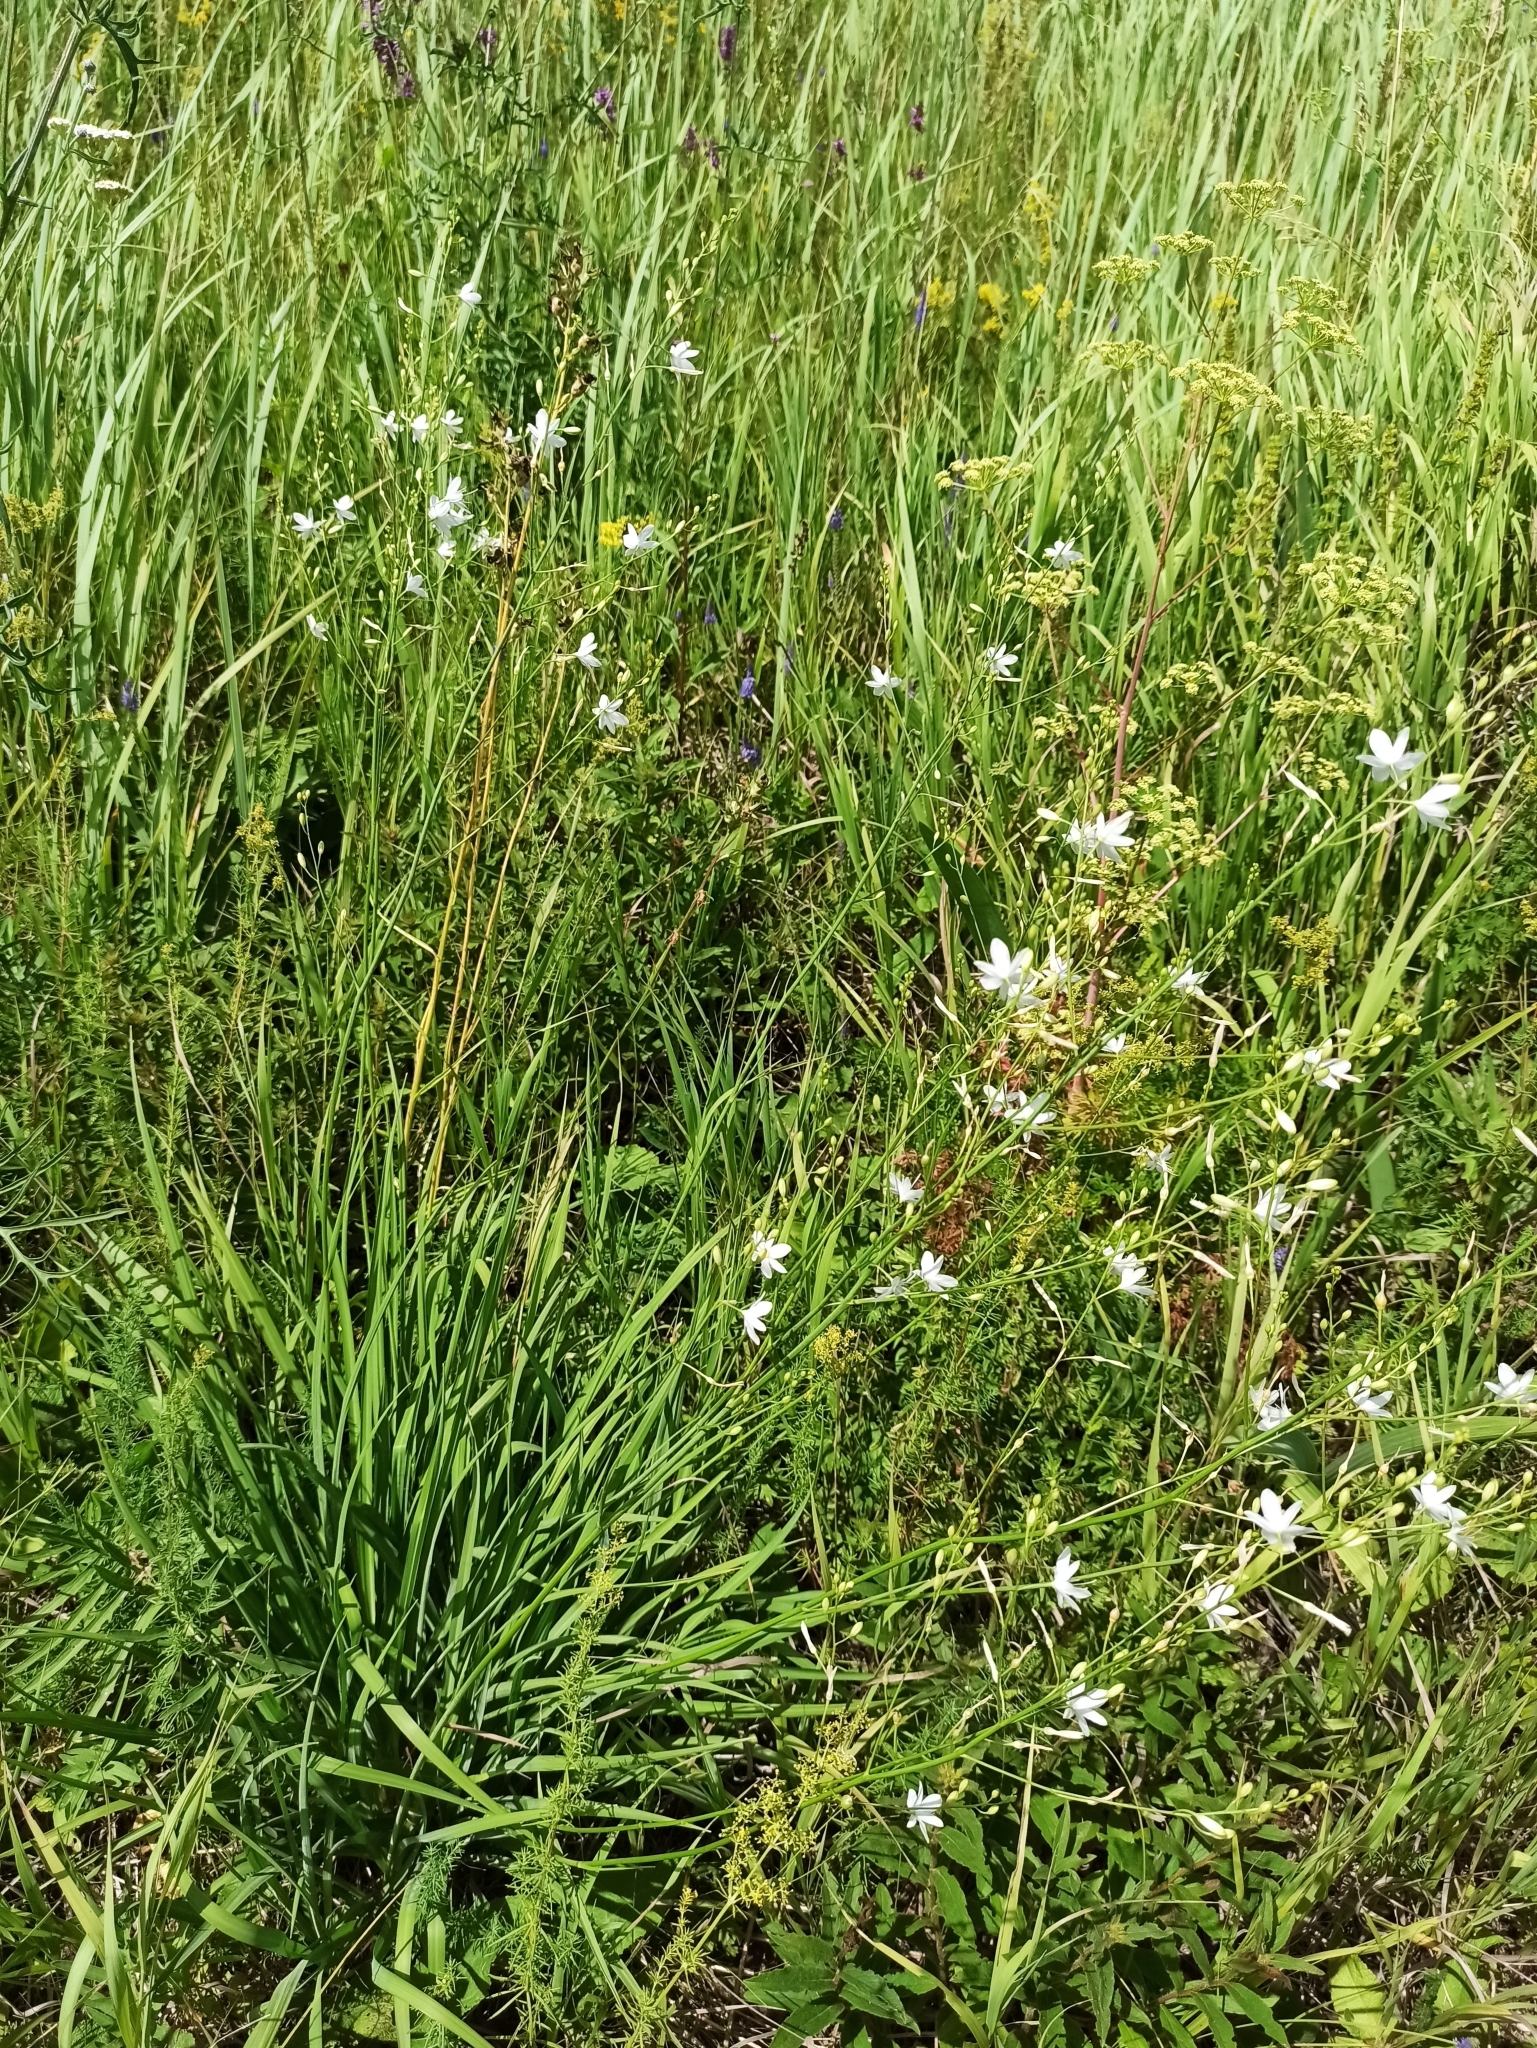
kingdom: Plantae
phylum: Tracheophyta
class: Liliopsida
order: Asparagales
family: Asparagaceae
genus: Anthericum
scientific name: Anthericum ramosum
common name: Branched st. bernard's-lily
